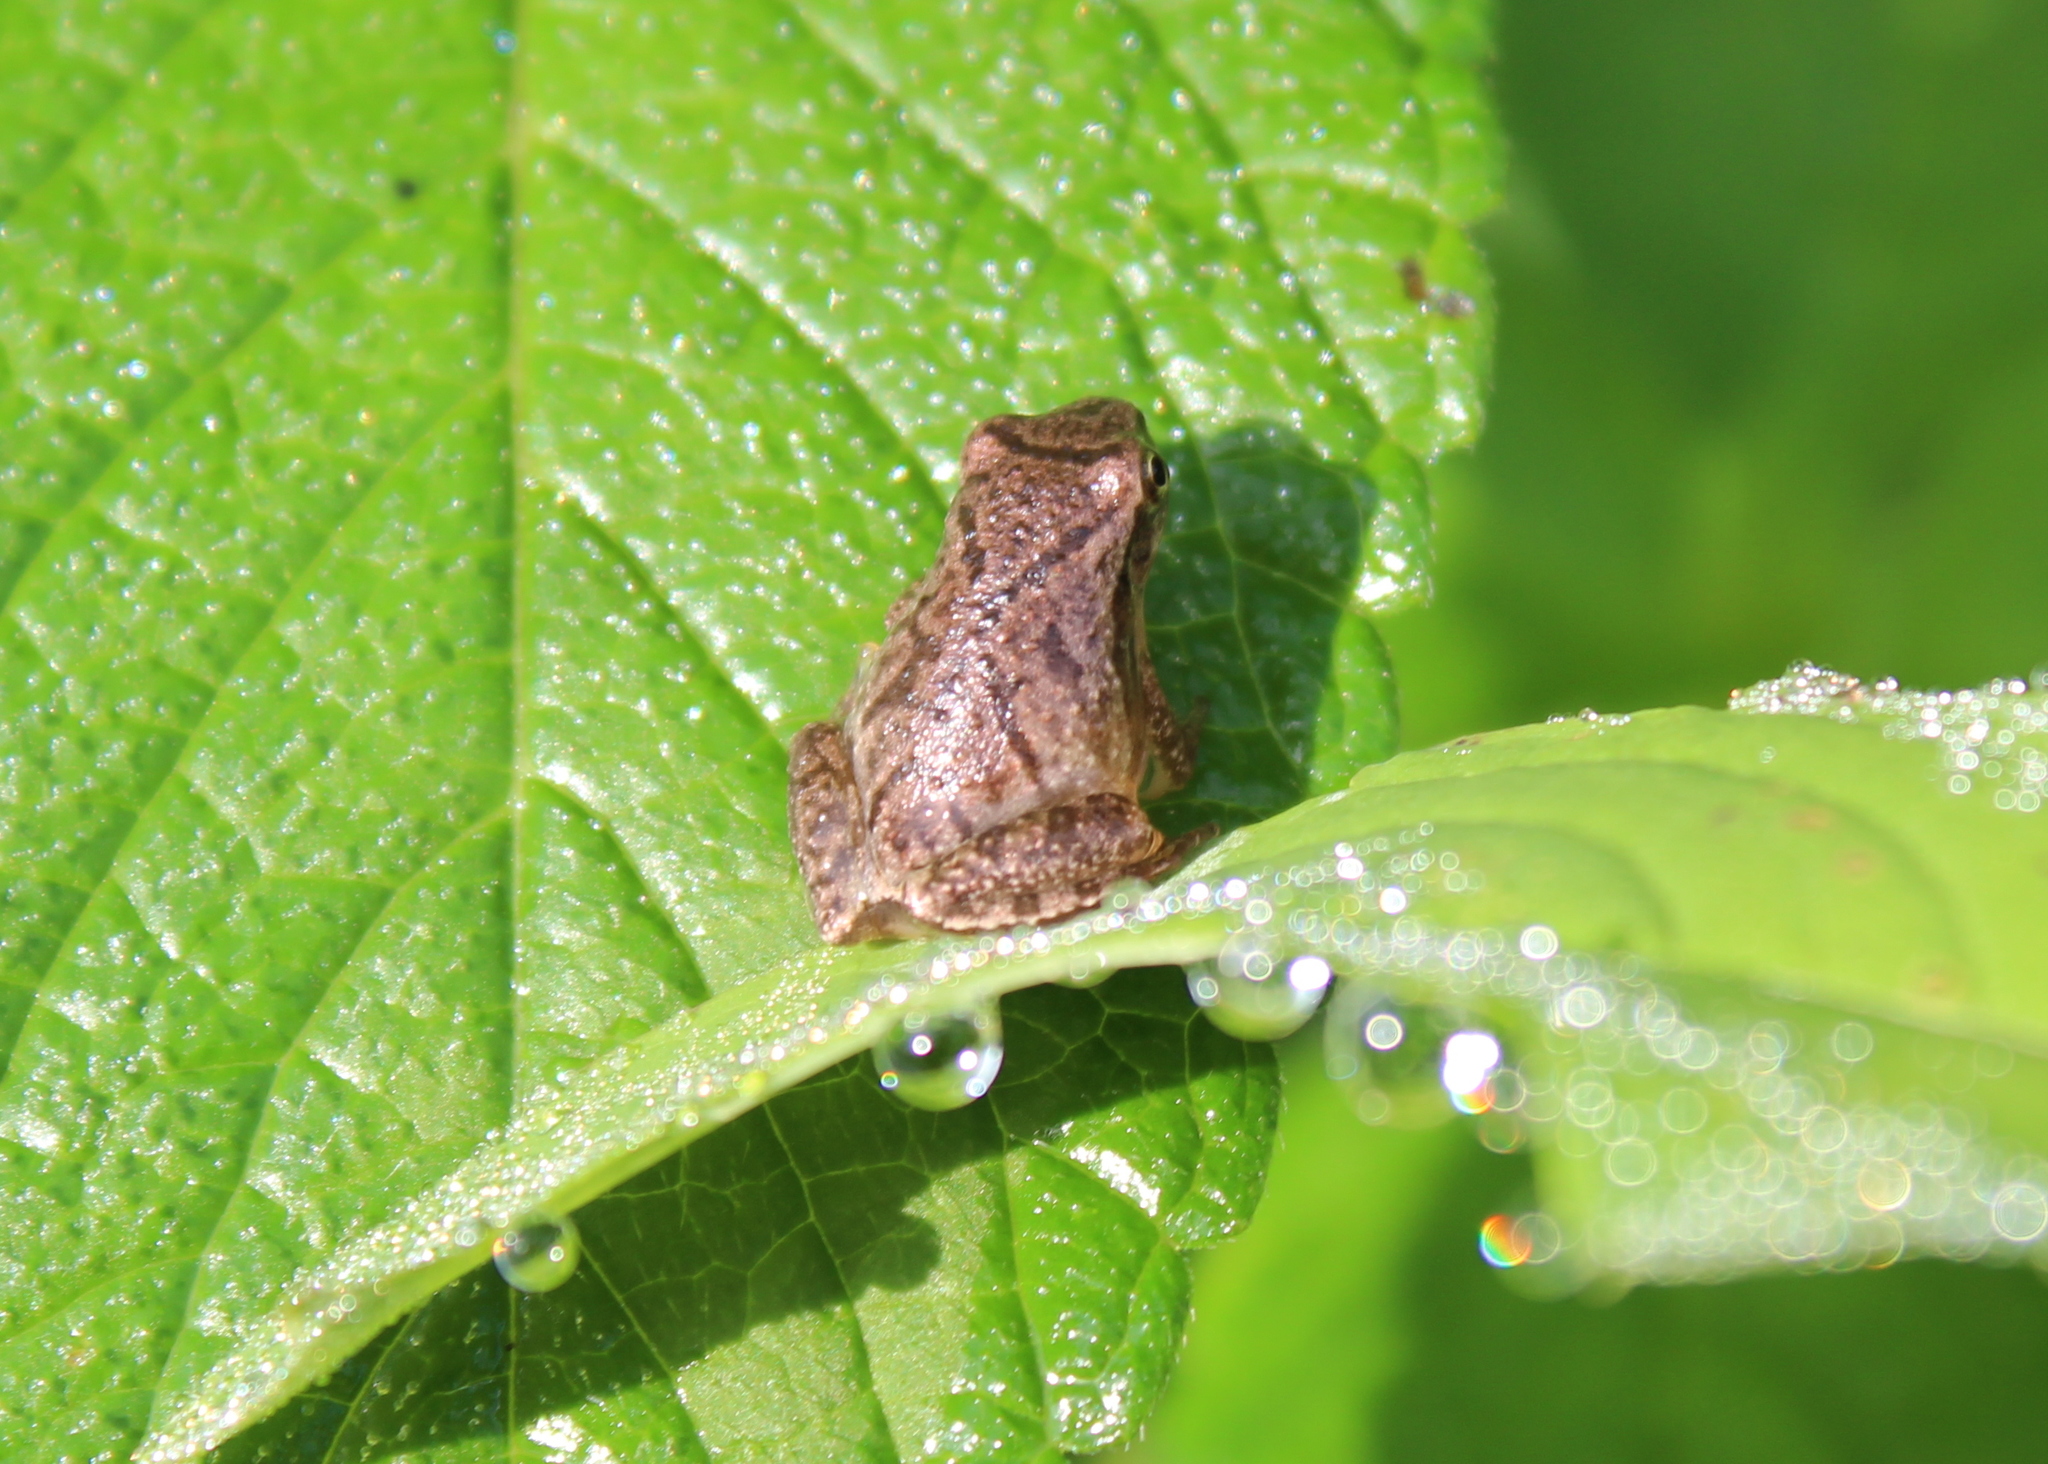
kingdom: Animalia
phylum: Chordata
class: Amphibia
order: Anura
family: Hylidae
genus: Pseudacris
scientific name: Pseudacris crucifer
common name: Spring peeper
